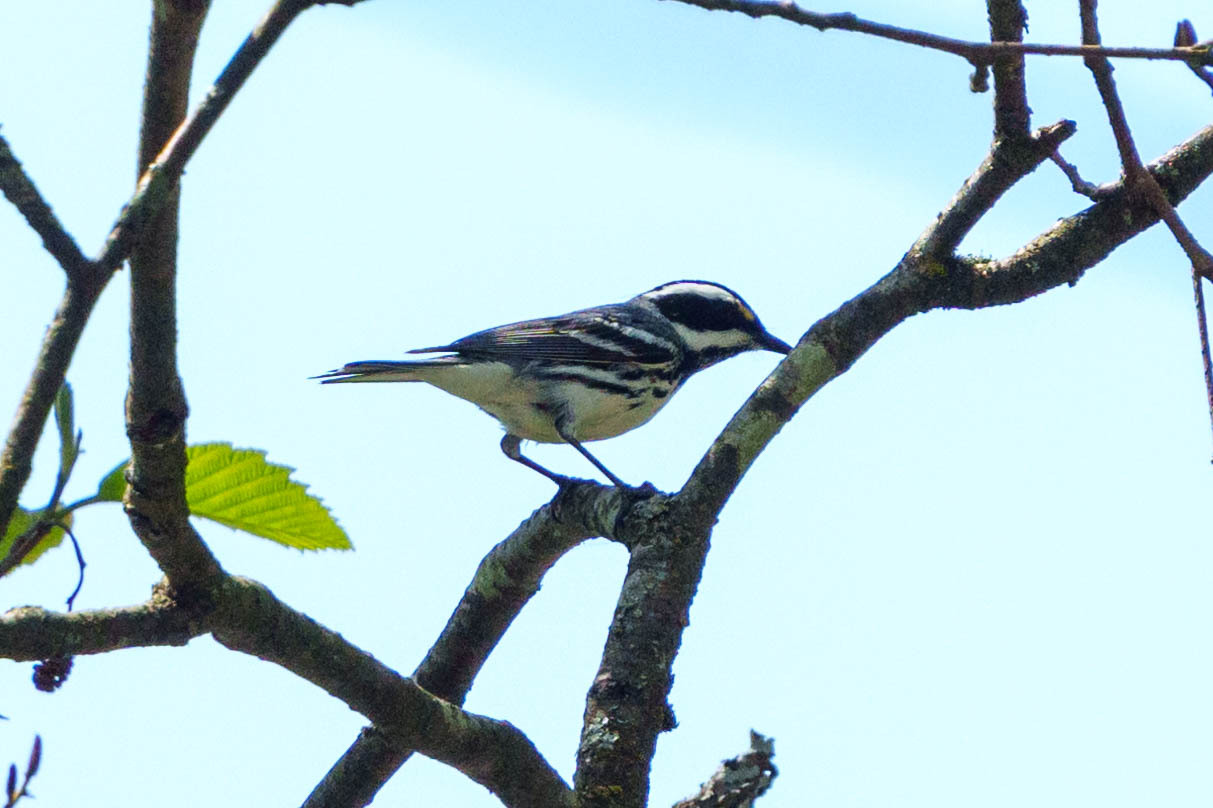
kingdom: Animalia
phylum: Chordata
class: Aves
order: Passeriformes
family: Parulidae
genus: Setophaga
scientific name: Setophaga nigrescens
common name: Black-throated gray warbler
